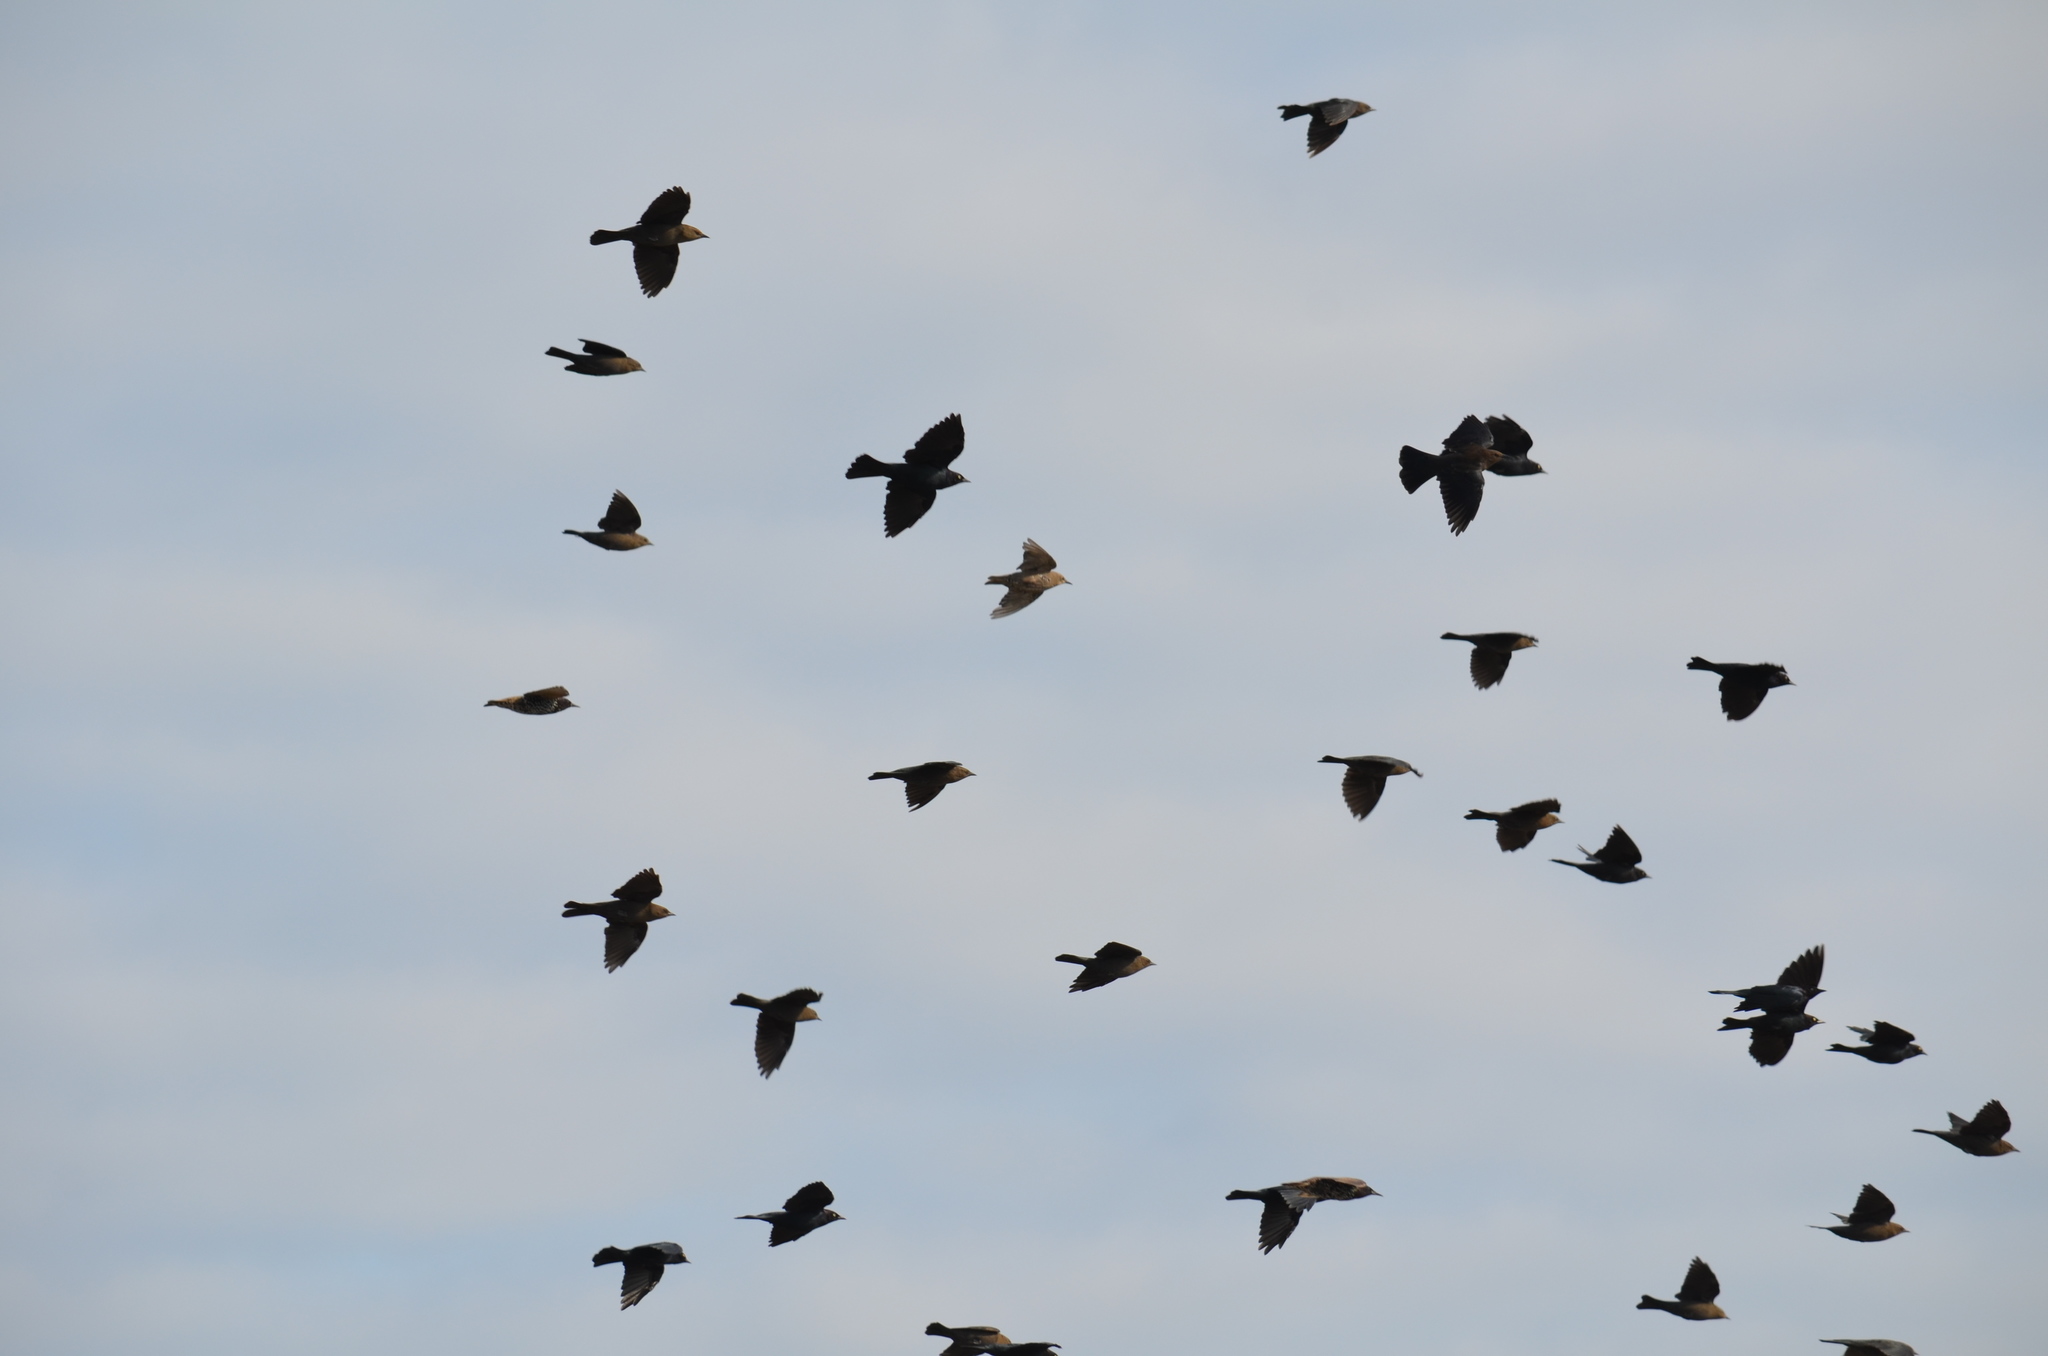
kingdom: Animalia
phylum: Chordata
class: Aves
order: Passeriformes
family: Icteridae
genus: Euphagus
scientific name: Euphagus cyanocephalus
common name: Brewer's blackbird
